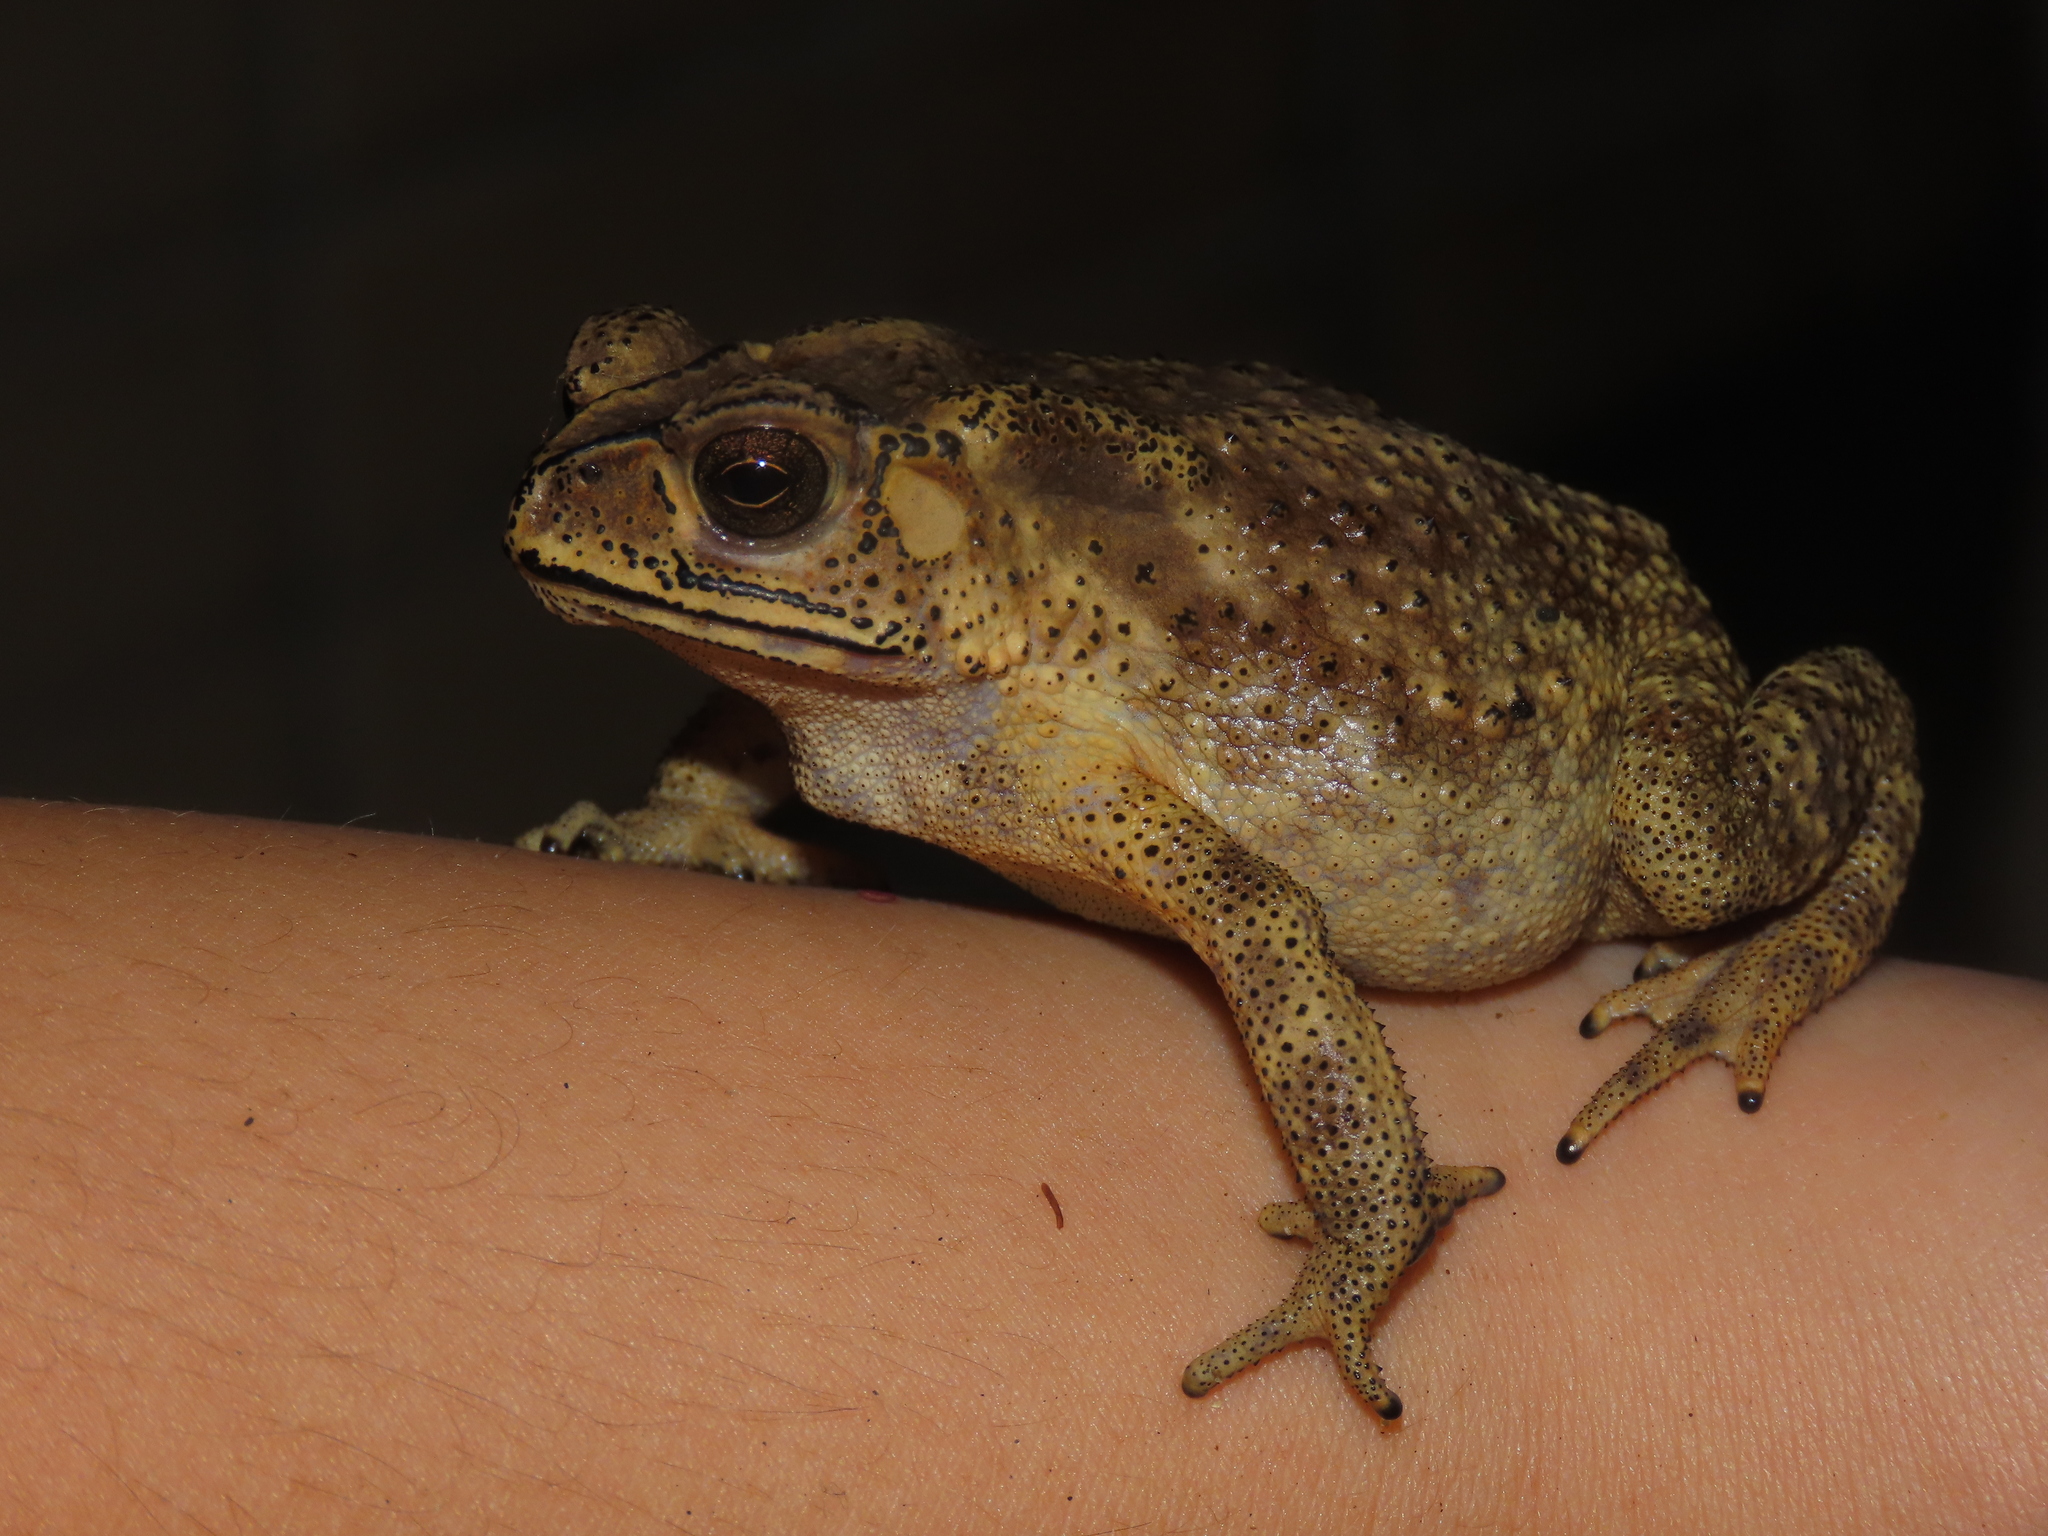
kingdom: Animalia
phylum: Chordata
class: Amphibia
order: Anura
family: Bufonidae
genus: Duttaphrynus
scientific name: Duttaphrynus melanostictus
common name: Common sunda toad
